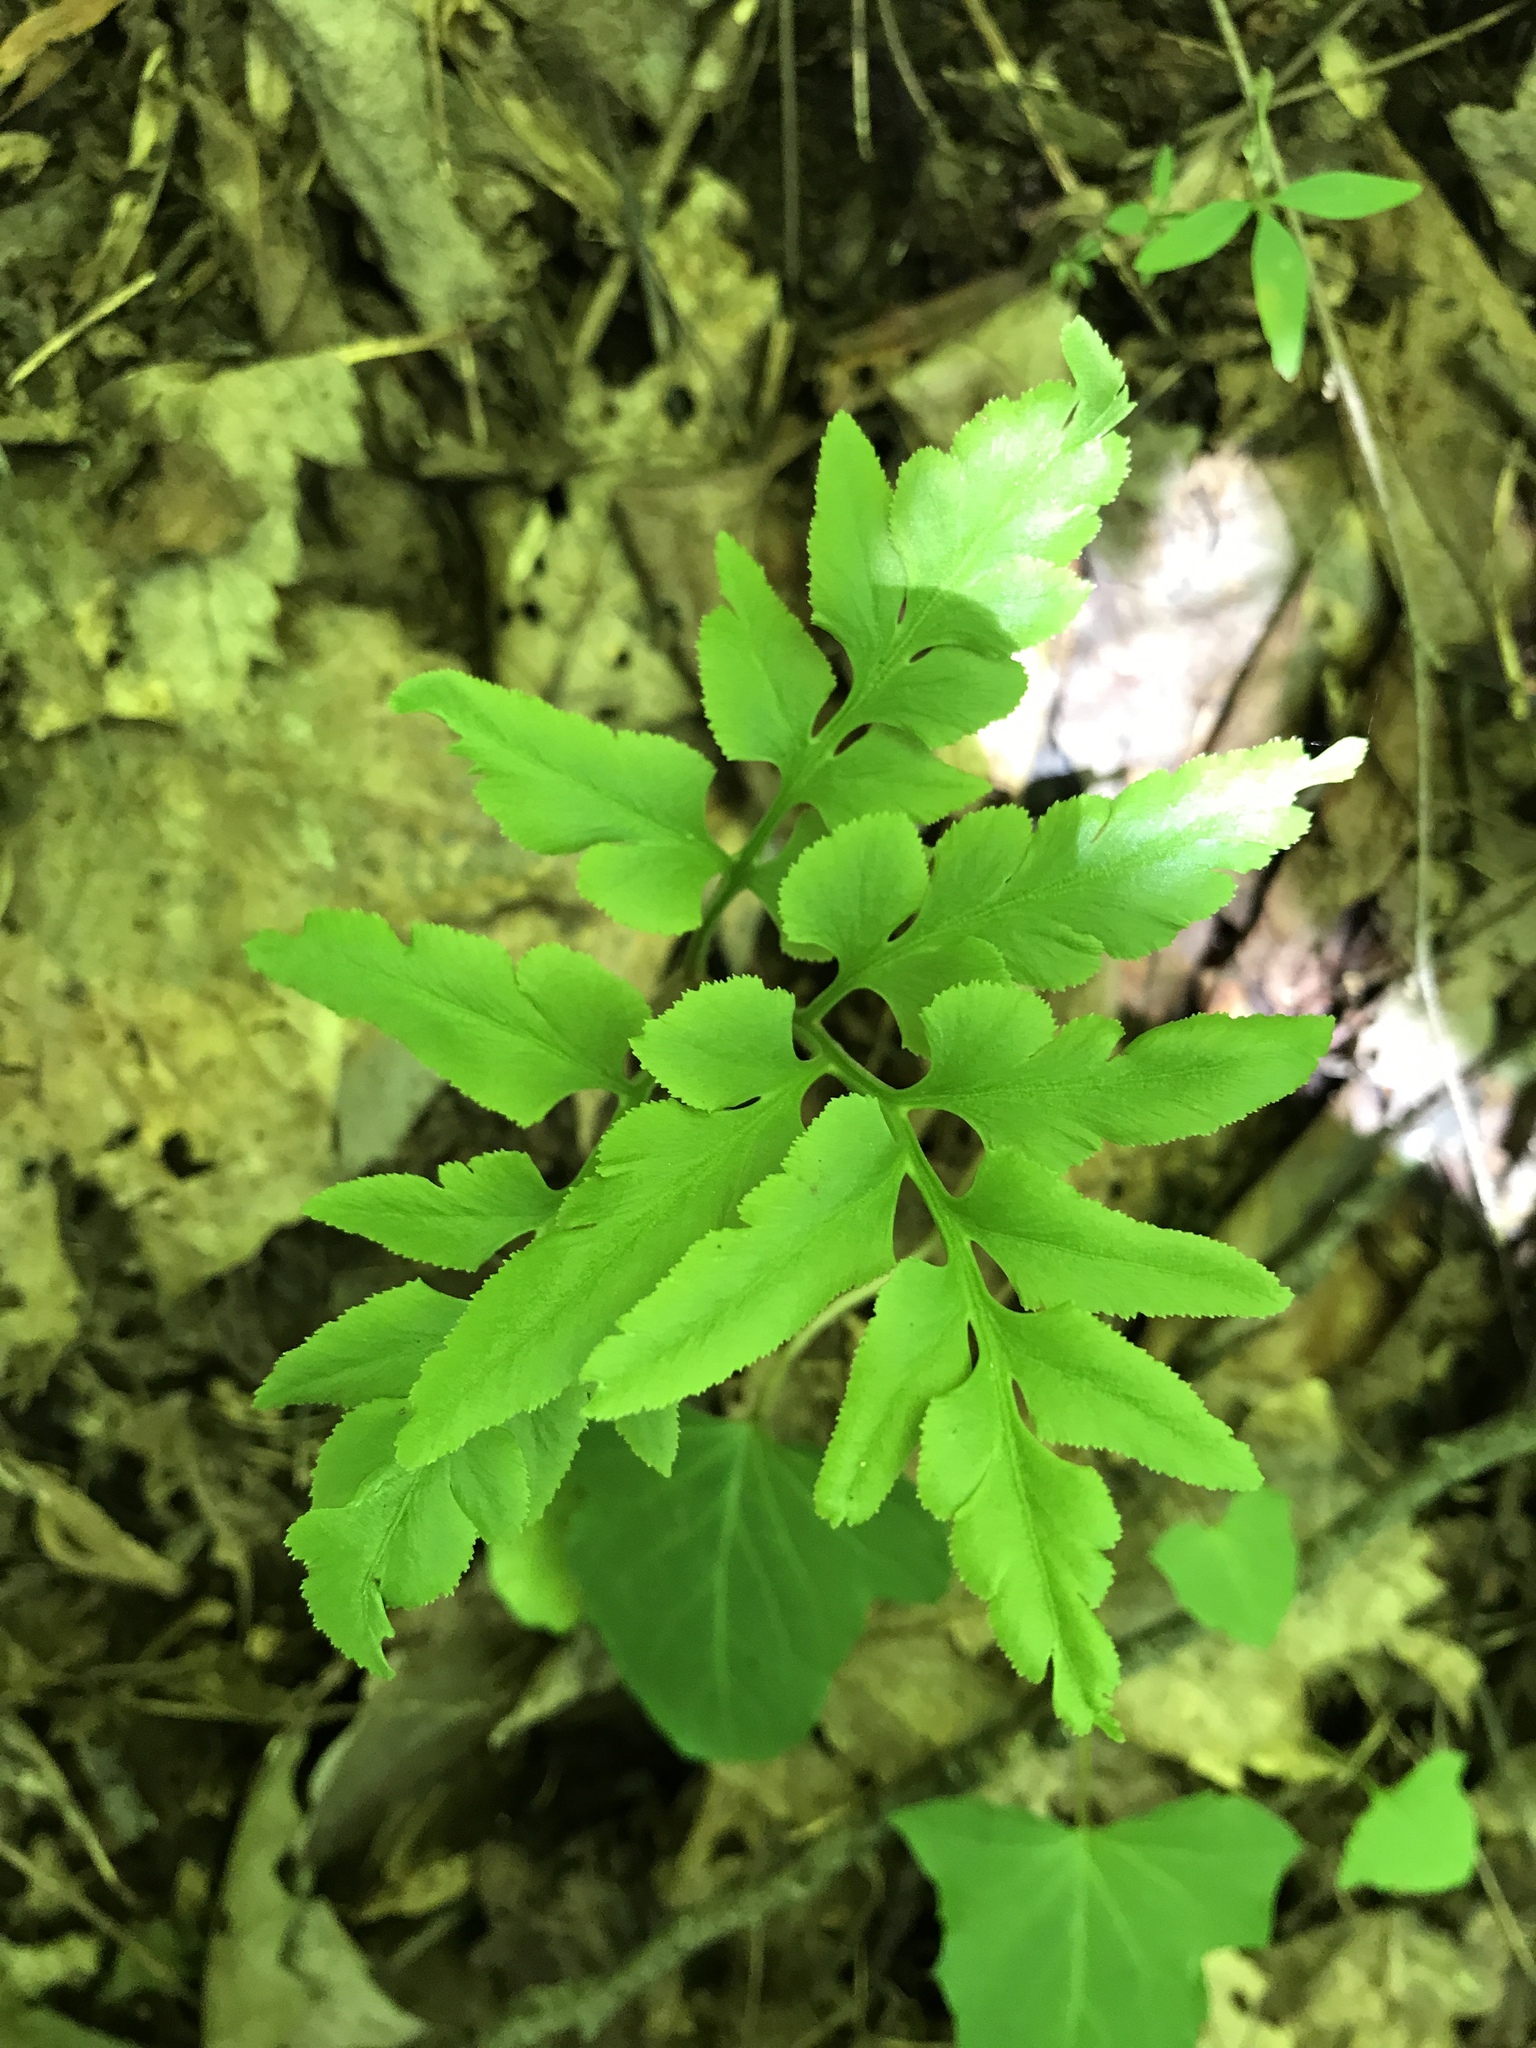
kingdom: Plantae
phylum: Tracheophyta
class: Polypodiopsida
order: Ophioglossales
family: Ophioglossaceae
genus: Sceptridium
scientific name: Sceptridium dissectum
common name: Cut-leaved grapefern
